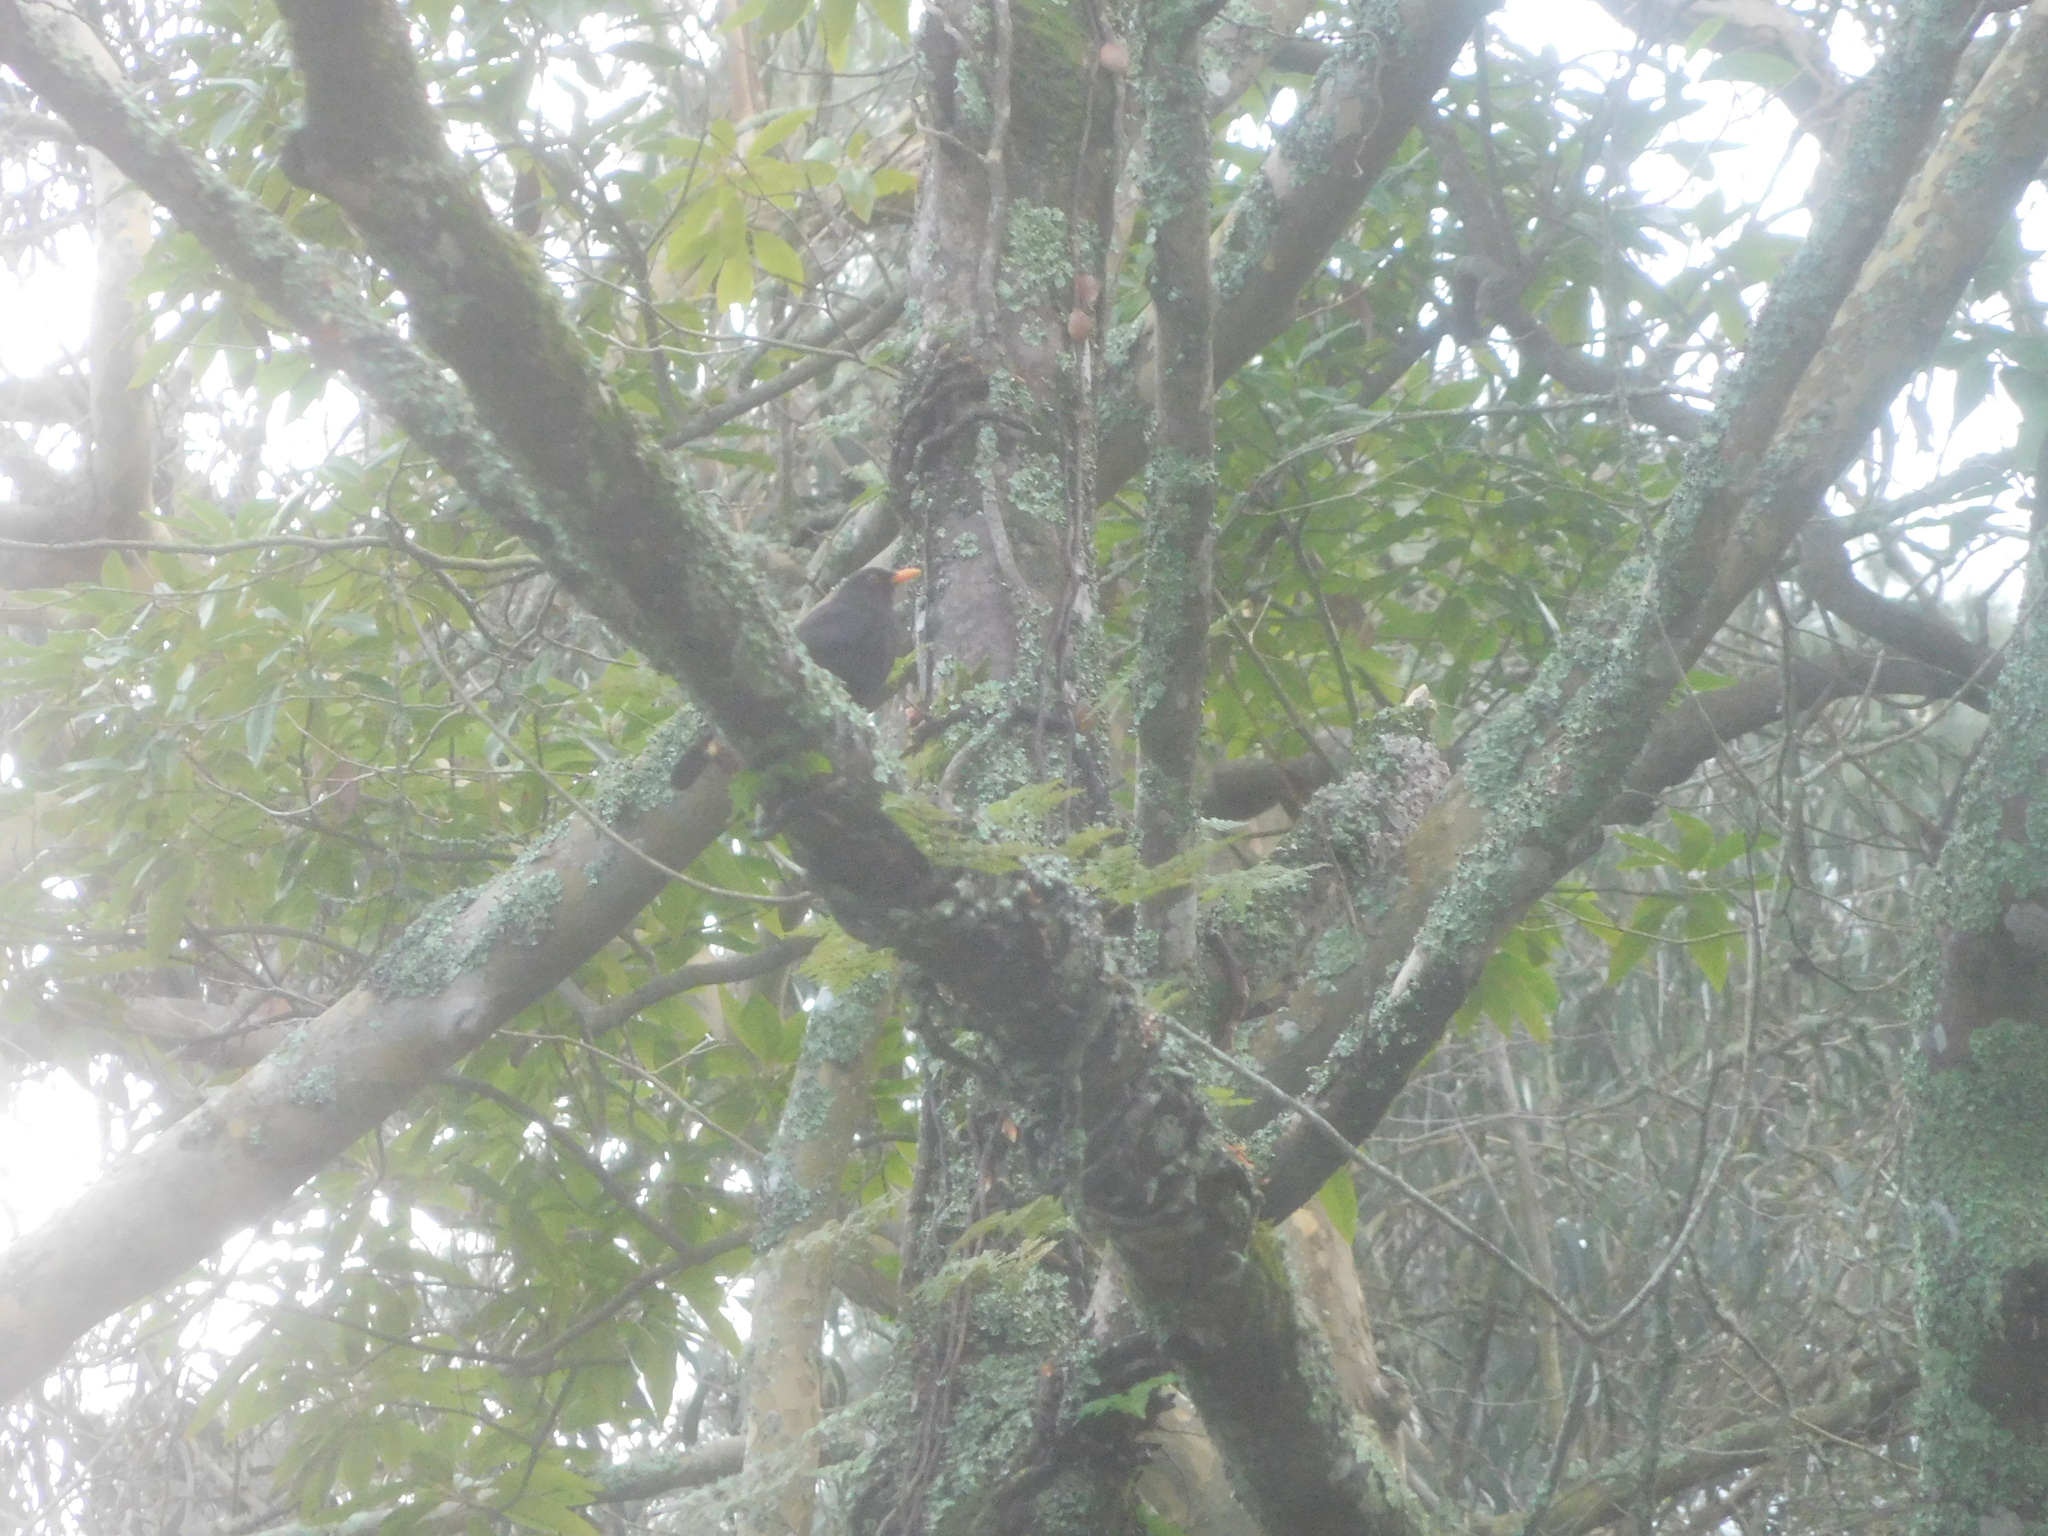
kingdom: Animalia
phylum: Chordata
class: Aves
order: Passeriformes
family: Turdidae
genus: Turdus
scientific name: Turdus merula
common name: Common blackbird
